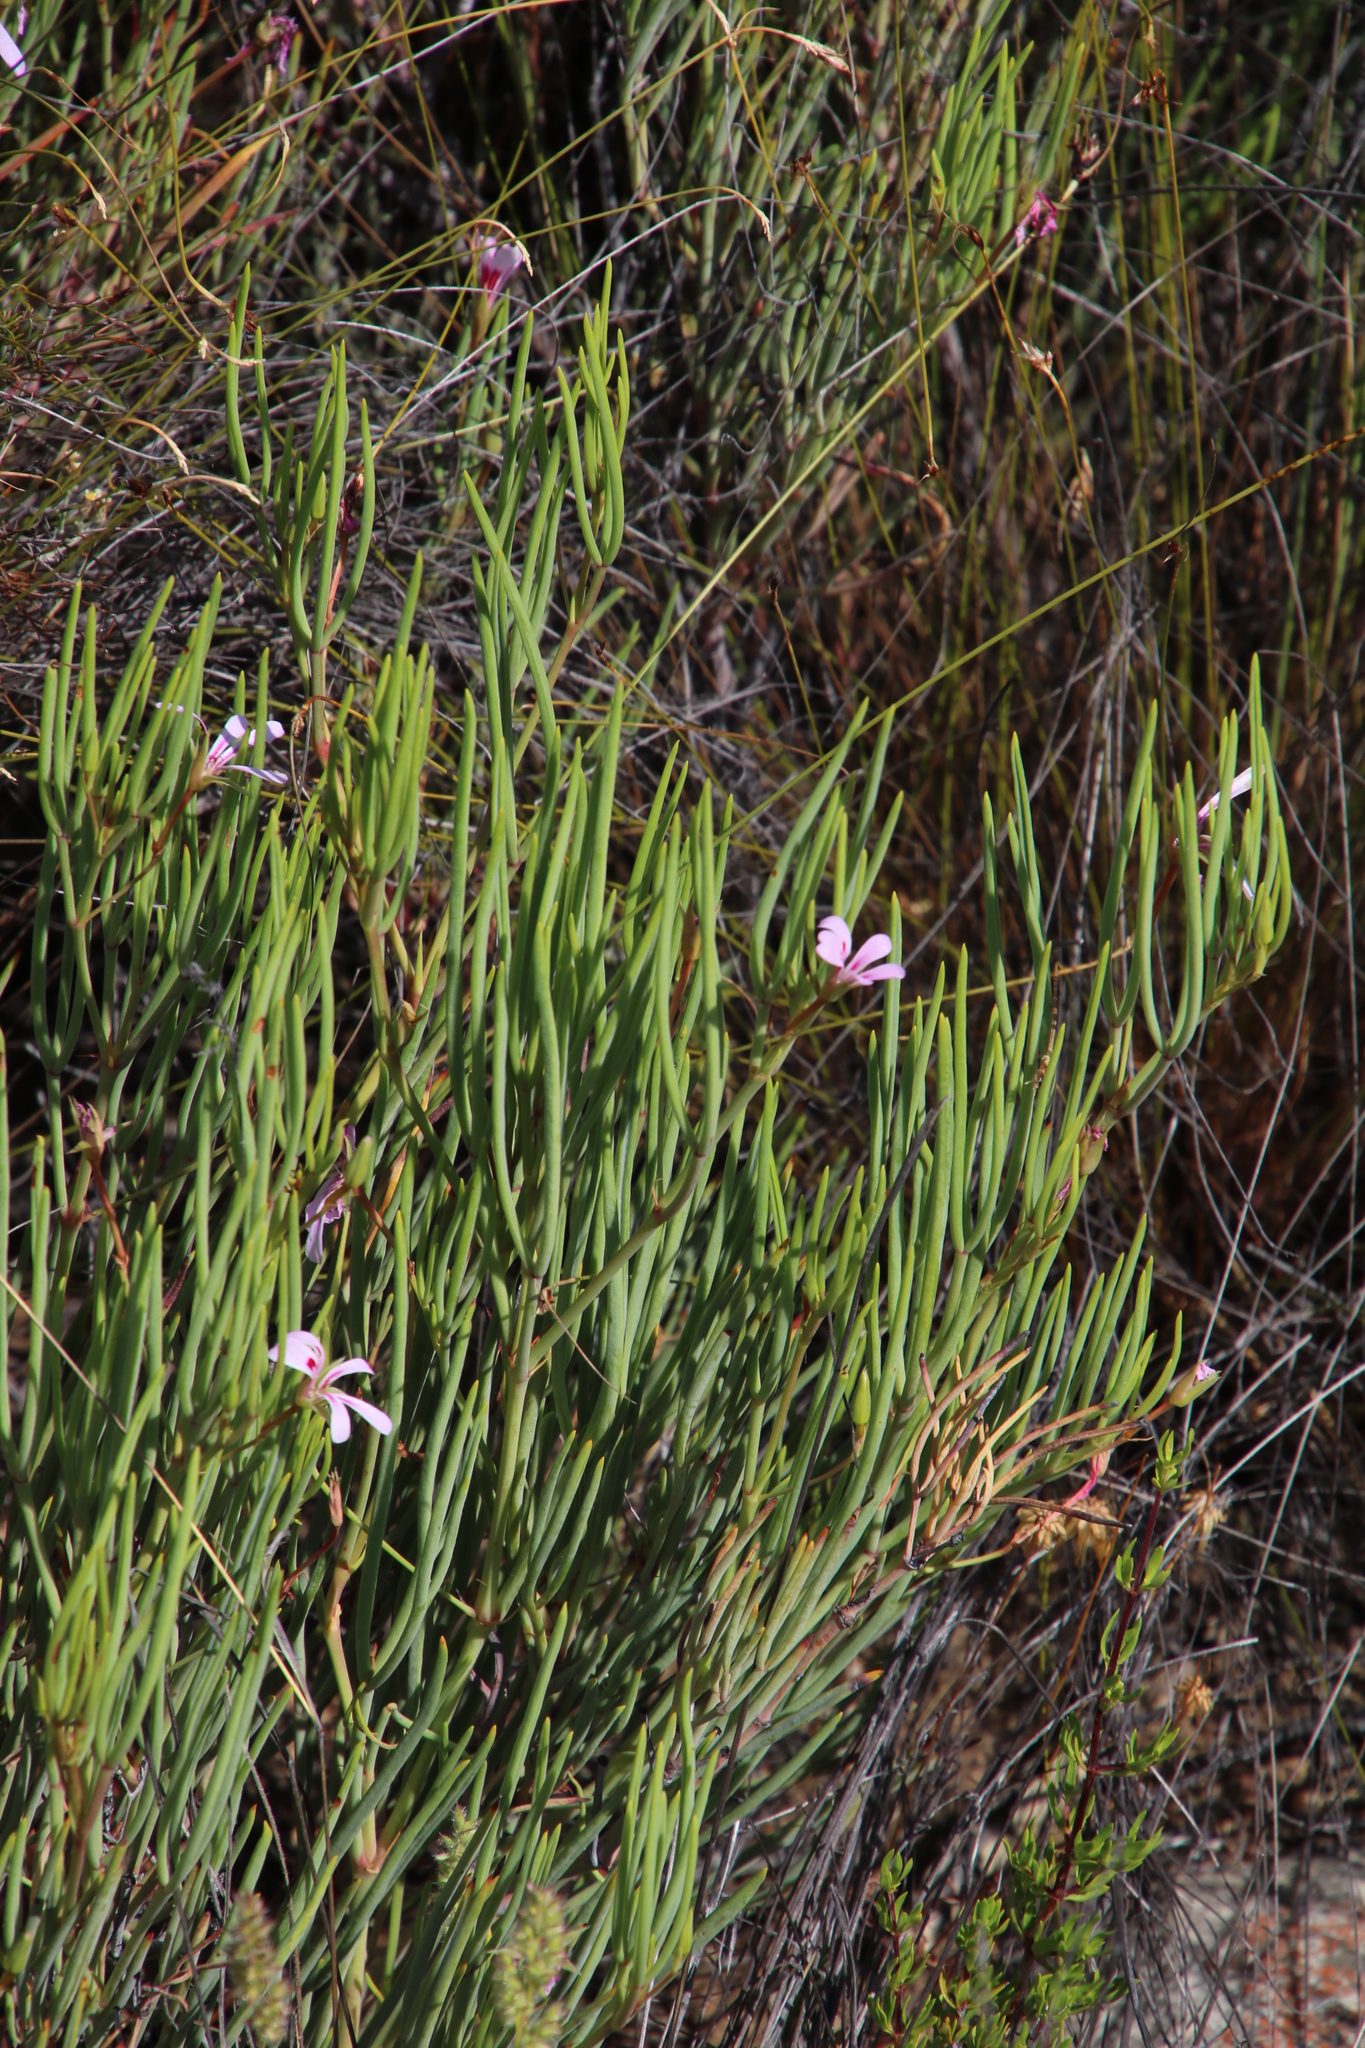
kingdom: Plantae
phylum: Tracheophyta
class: Magnoliopsida
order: Geraniales
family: Geraniaceae
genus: Pelargonium
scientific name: Pelargonium laevigatum
